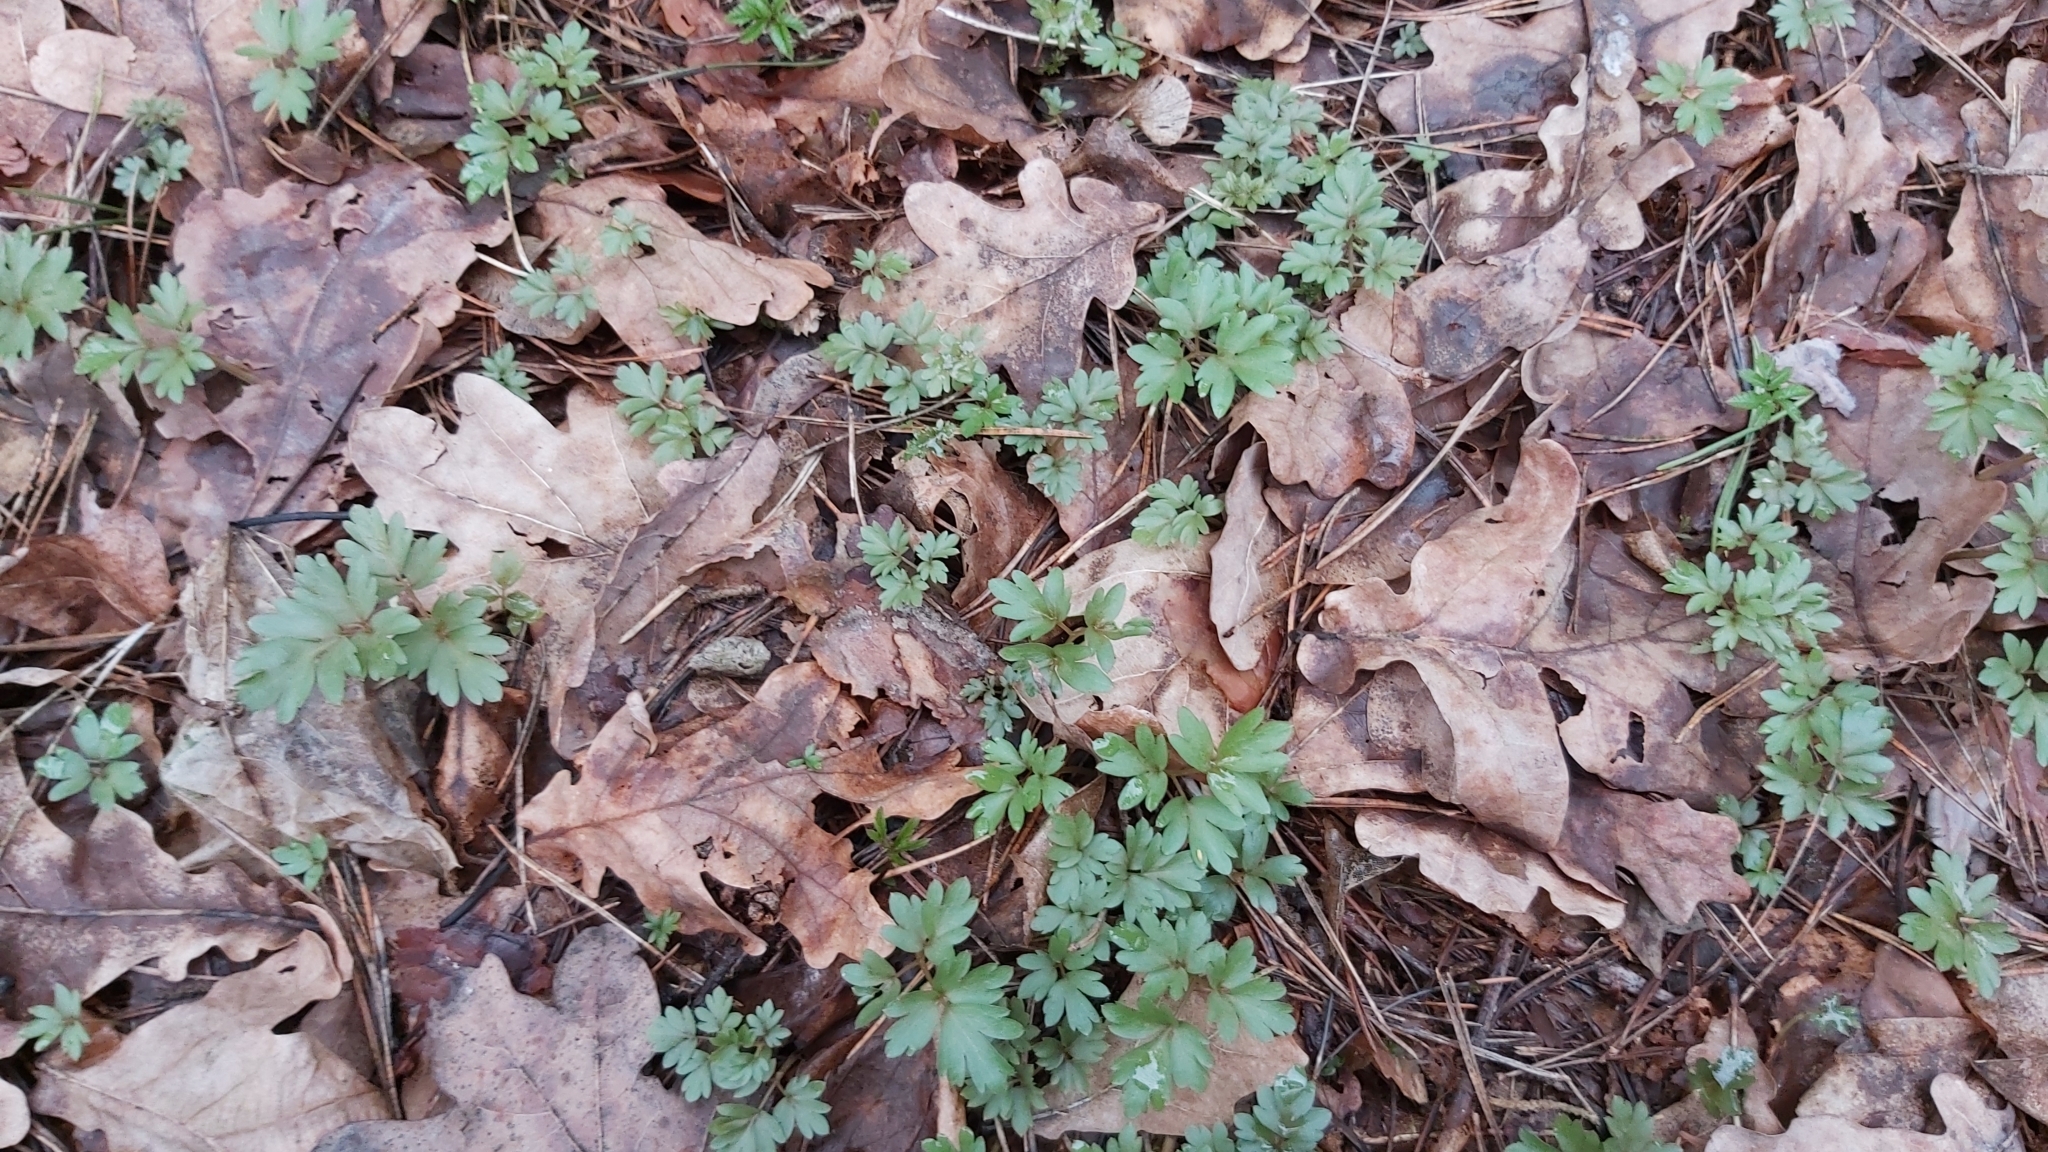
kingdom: Plantae
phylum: Tracheophyta
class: Magnoliopsida
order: Dipsacales
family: Viburnaceae
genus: Adoxa
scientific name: Adoxa moschatellina
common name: Moschatel
